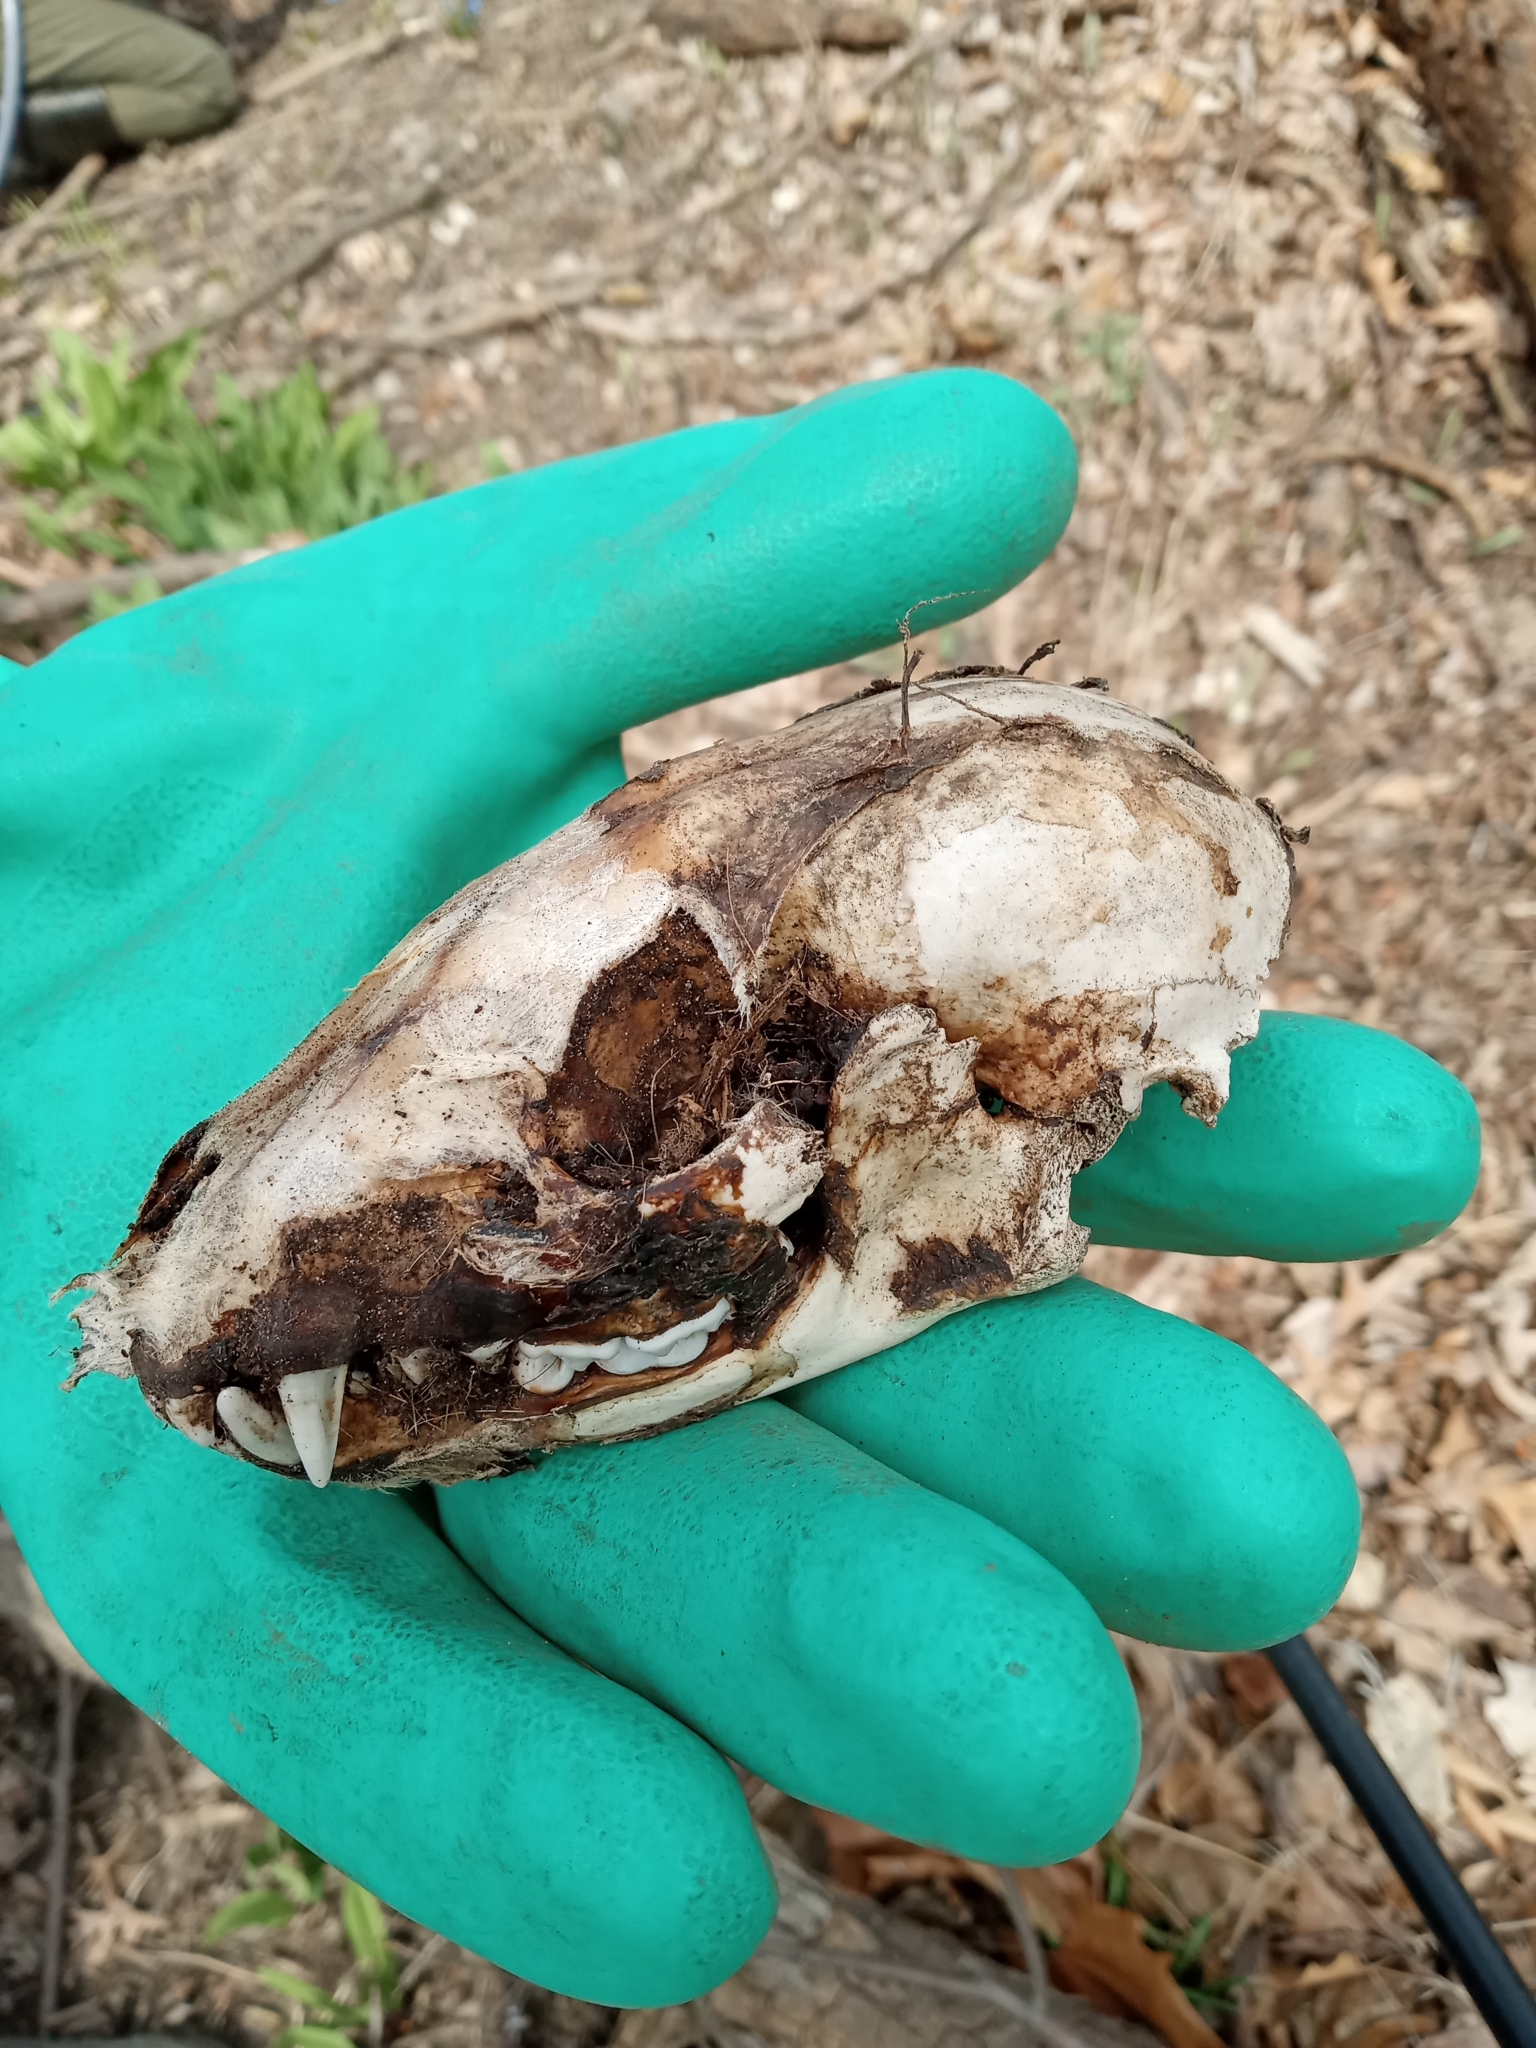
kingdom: Animalia
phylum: Chordata
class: Mammalia
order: Carnivora
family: Procyonidae
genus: Procyon
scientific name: Procyon lotor
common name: Raccoon
